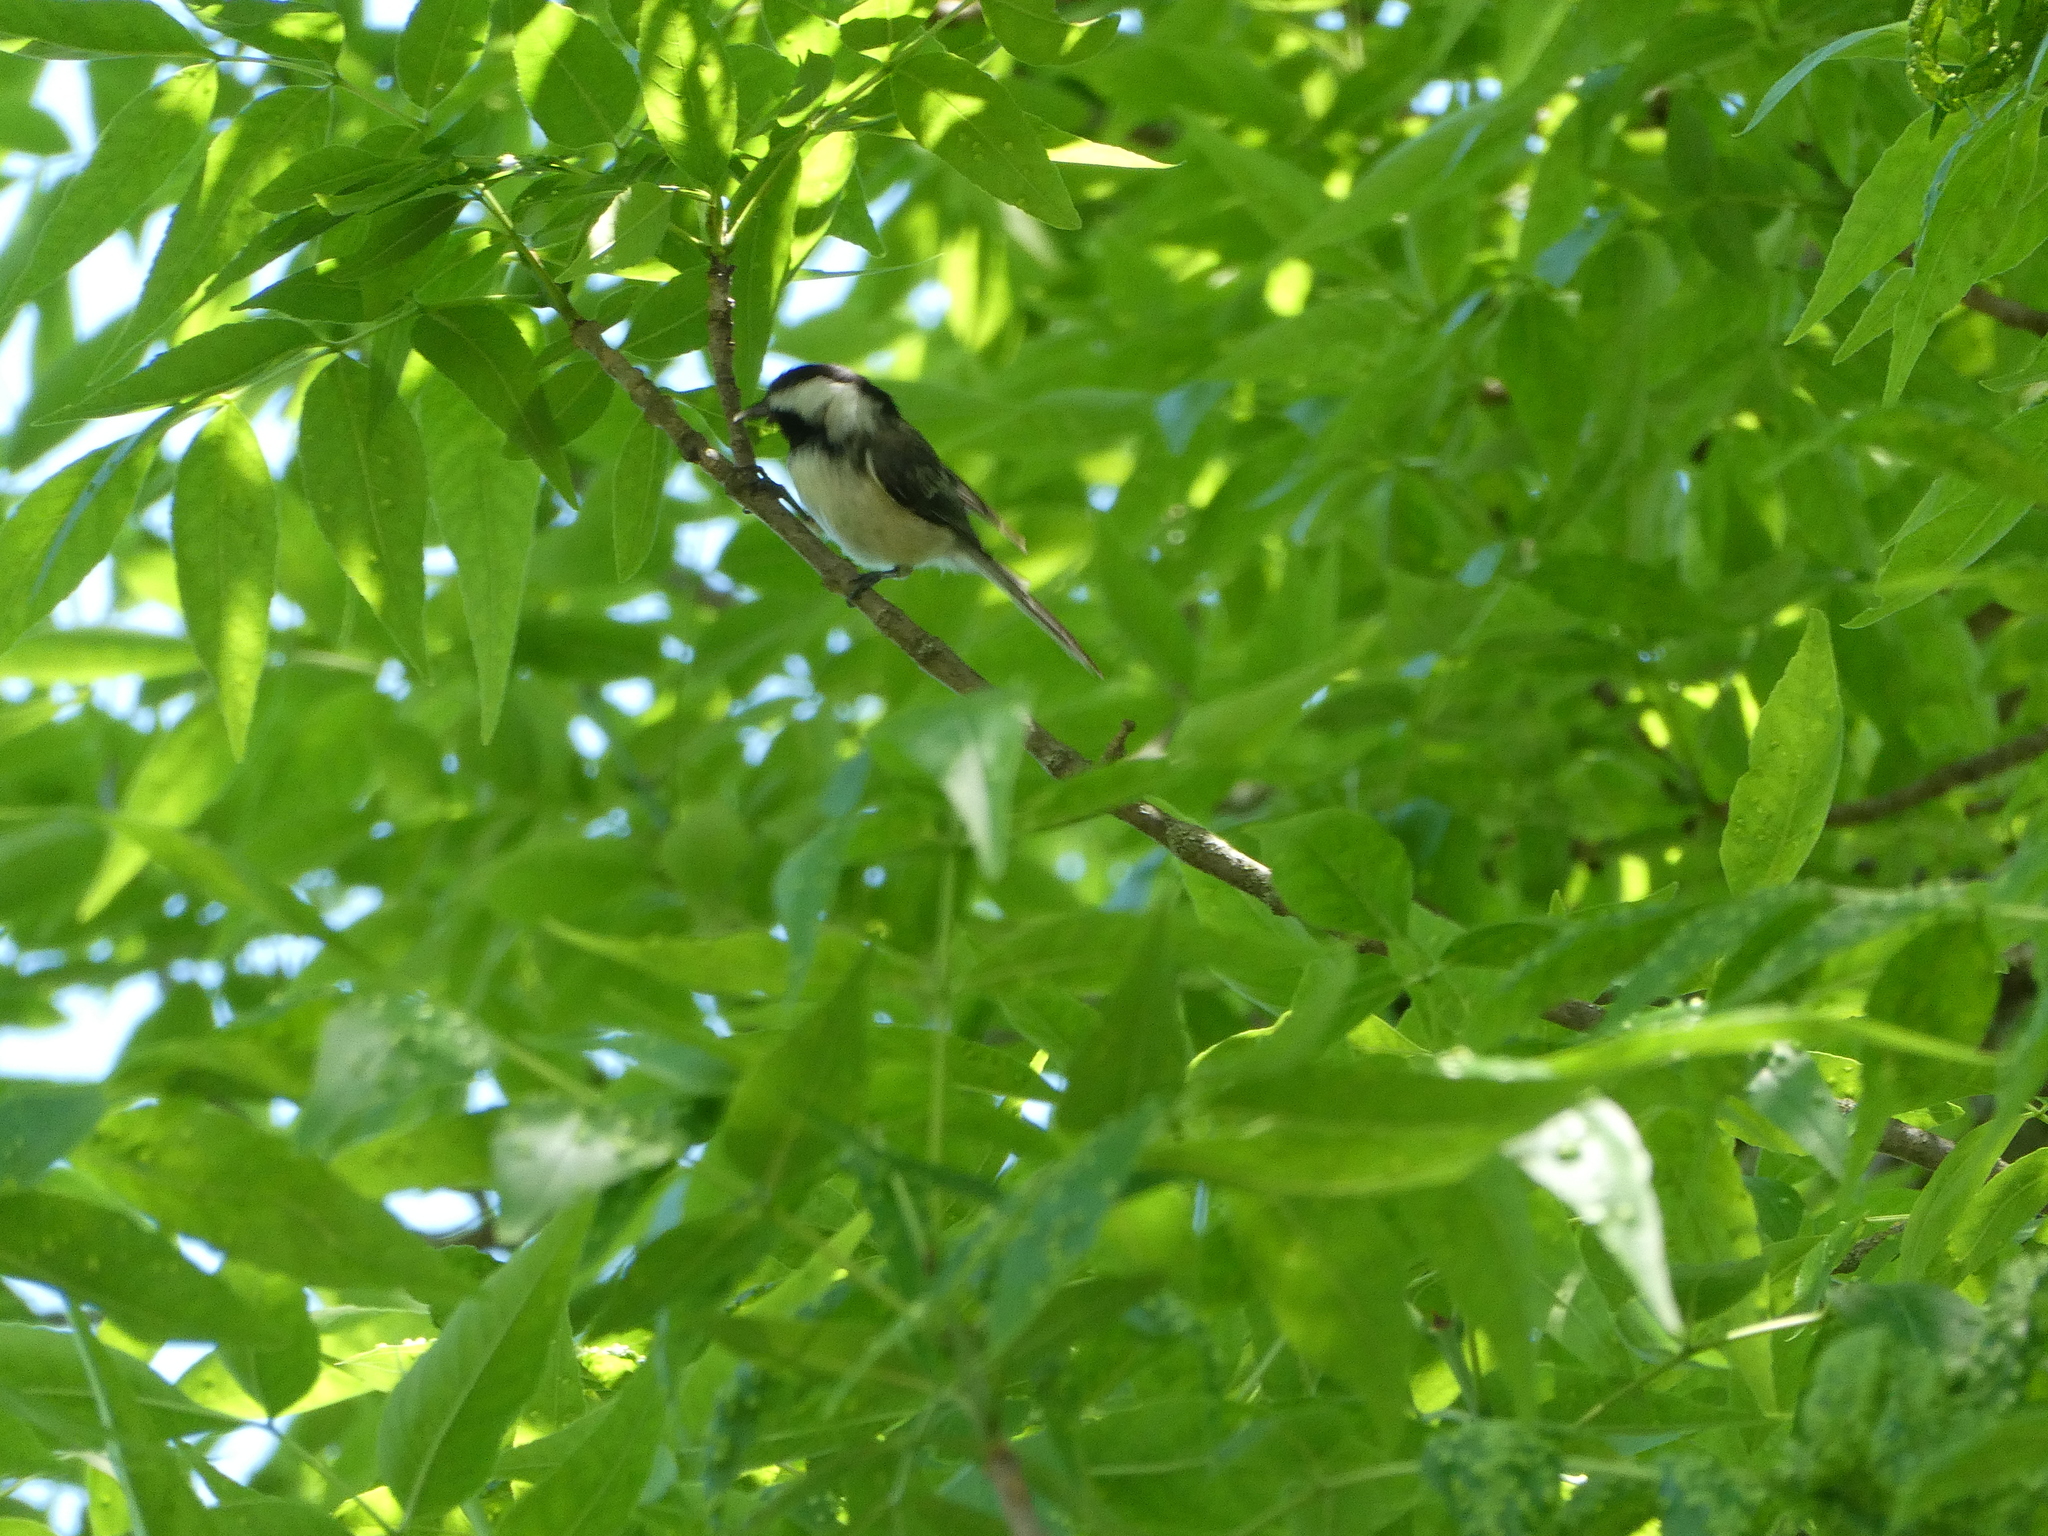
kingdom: Animalia
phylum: Chordata
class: Aves
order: Passeriformes
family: Paridae
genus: Poecile
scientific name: Poecile atricapillus
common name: Black-capped chickadee
